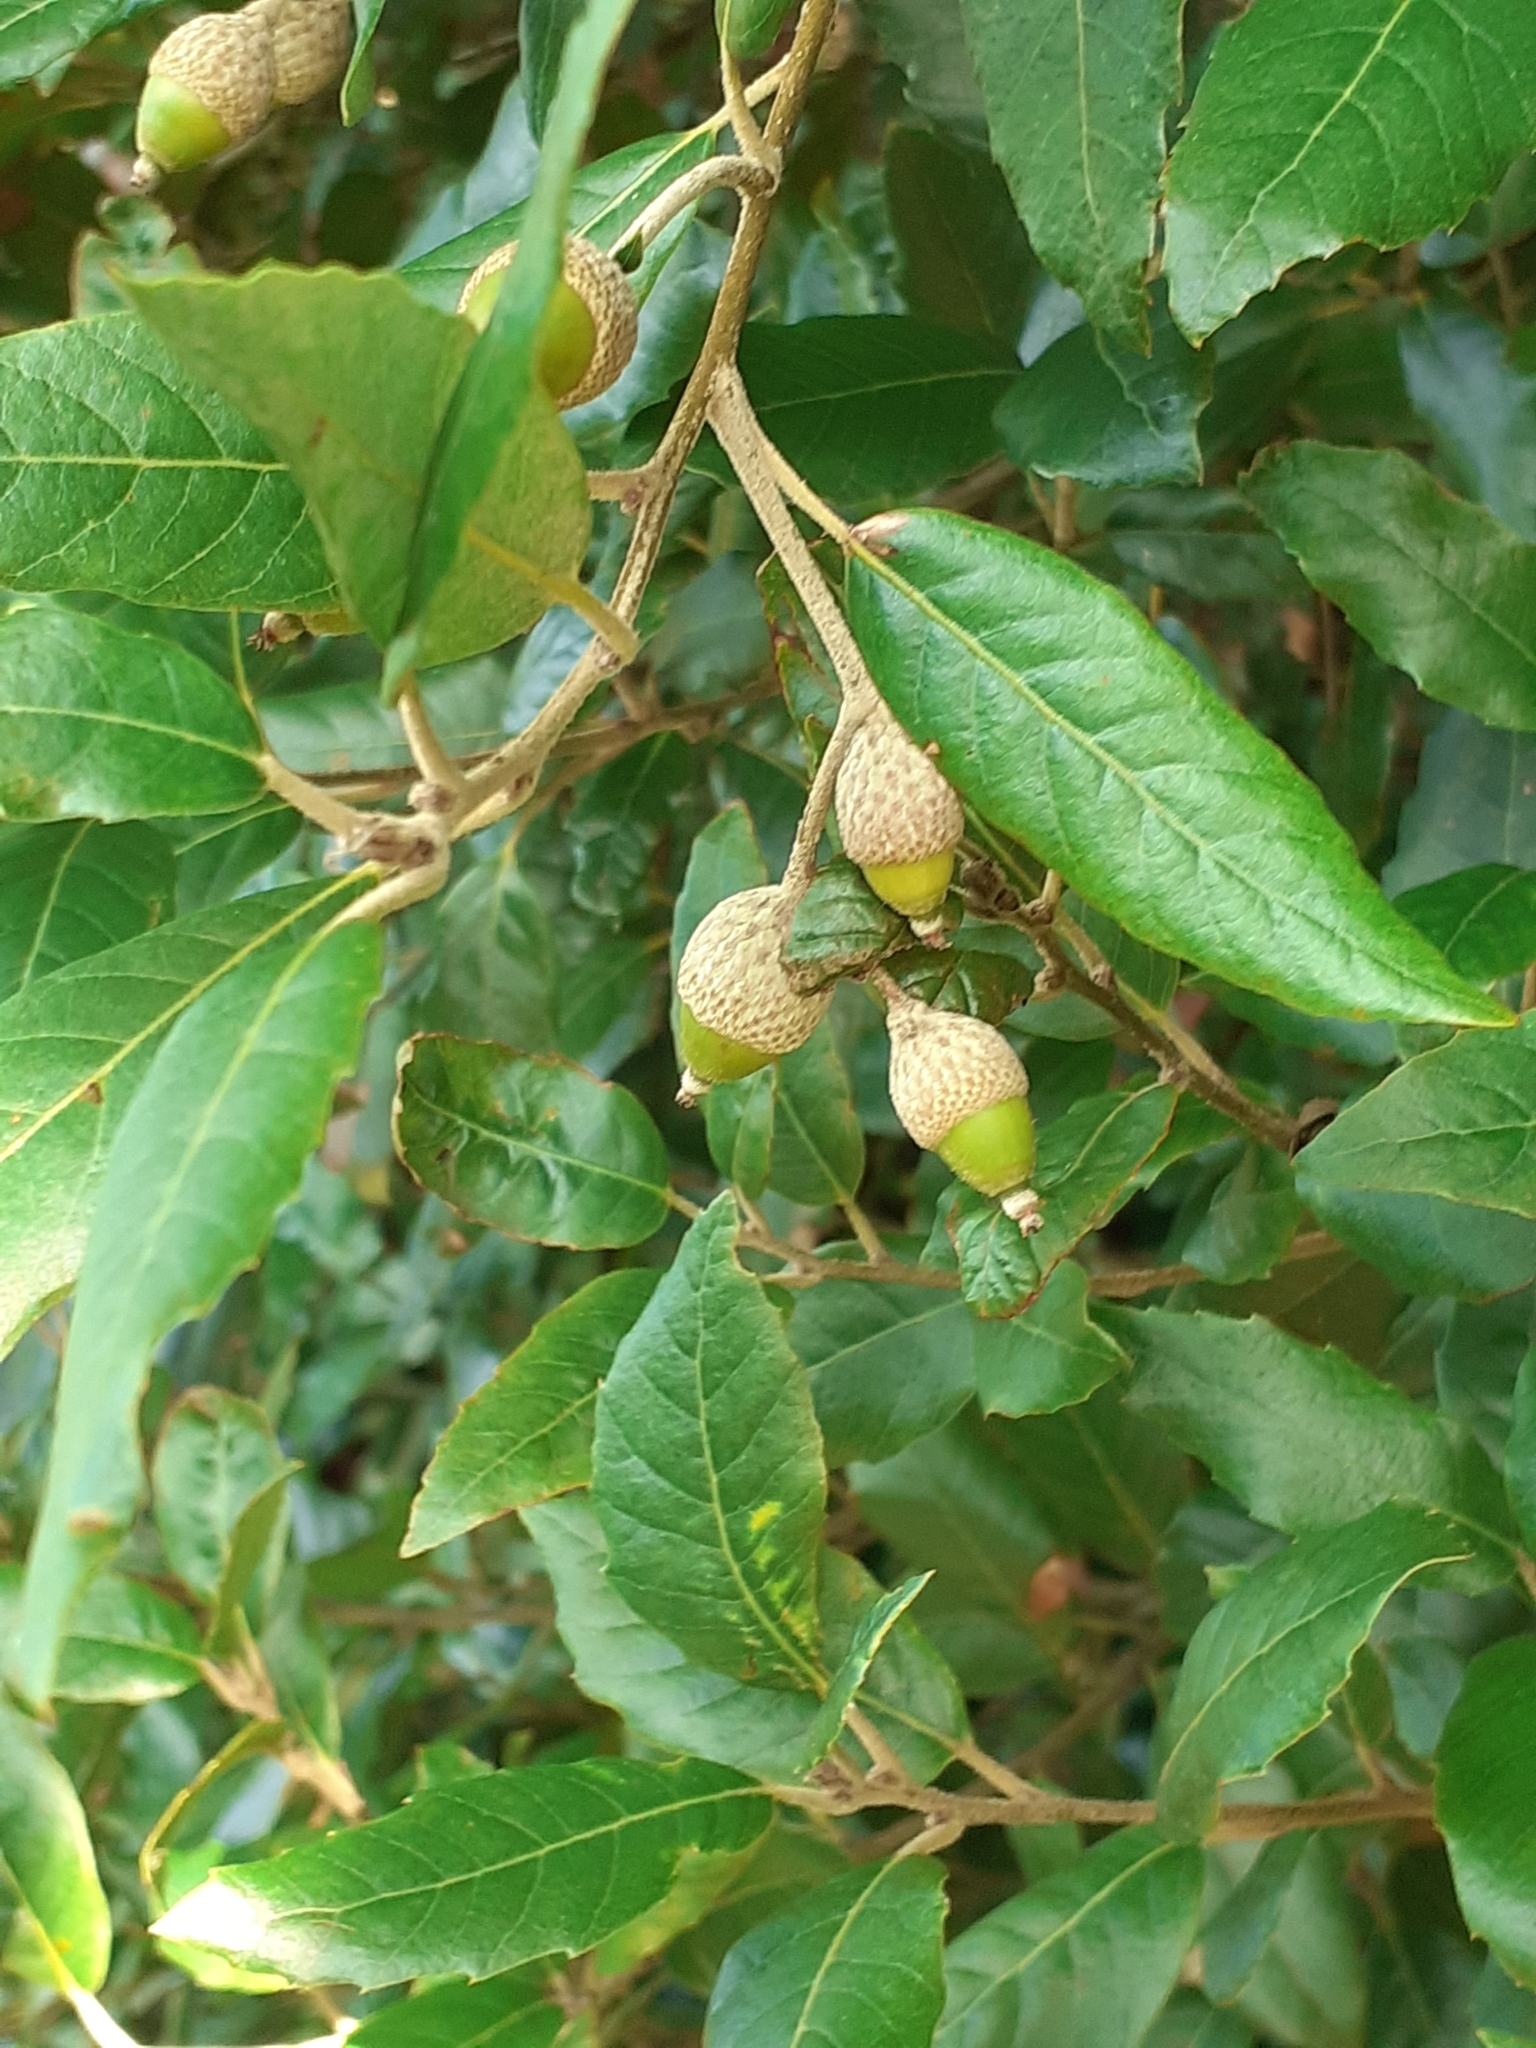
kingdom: Plantae
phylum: Tracheophyta
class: Magnoliopsida
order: Fagales
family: Fagaceae
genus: Quercus
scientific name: Quercus ilex
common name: Evergreen oak
